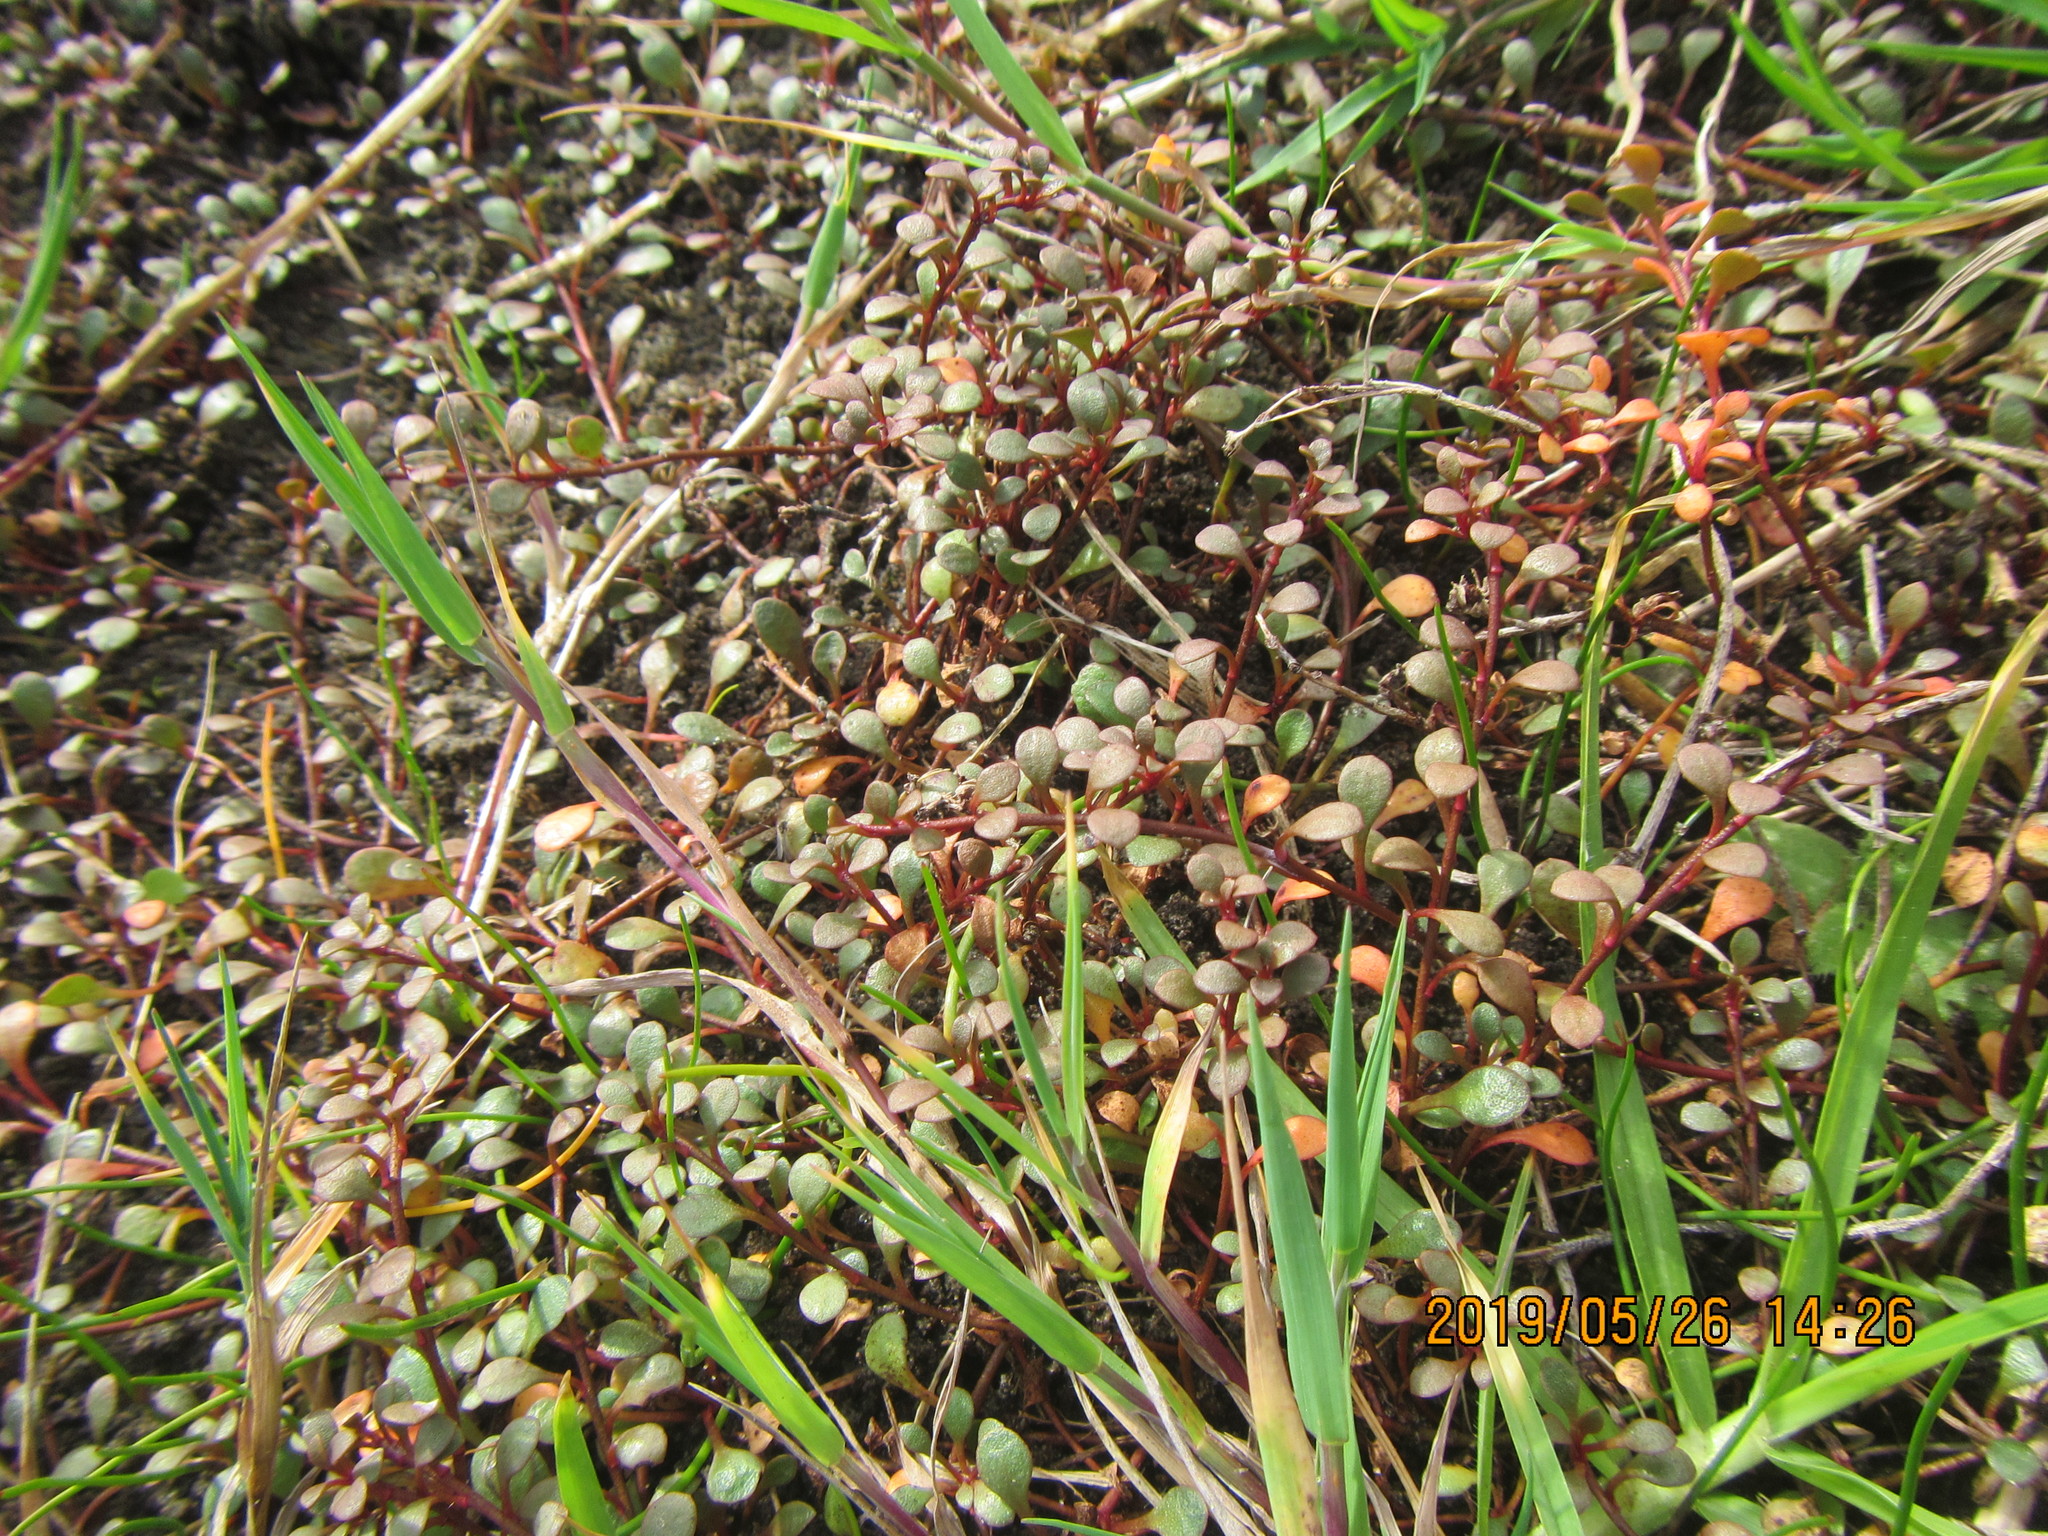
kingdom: Plantae
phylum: Tracheophyta
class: Magnoliopsida
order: Ericales
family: Primulaceae
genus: Samolus
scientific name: Samolus repens
